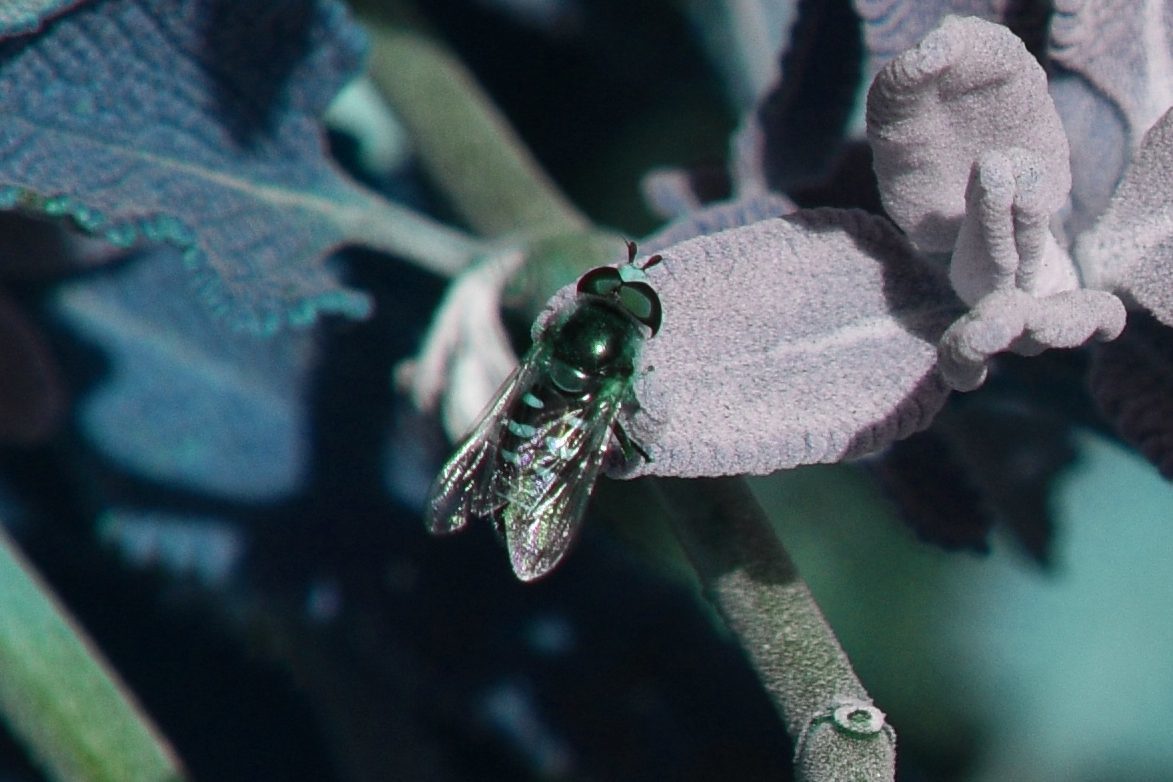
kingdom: Animalia
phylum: Arthropoda
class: Insecta
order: Diptera
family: Syrphidae
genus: Eupeodes
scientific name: Eupeodes volucris
